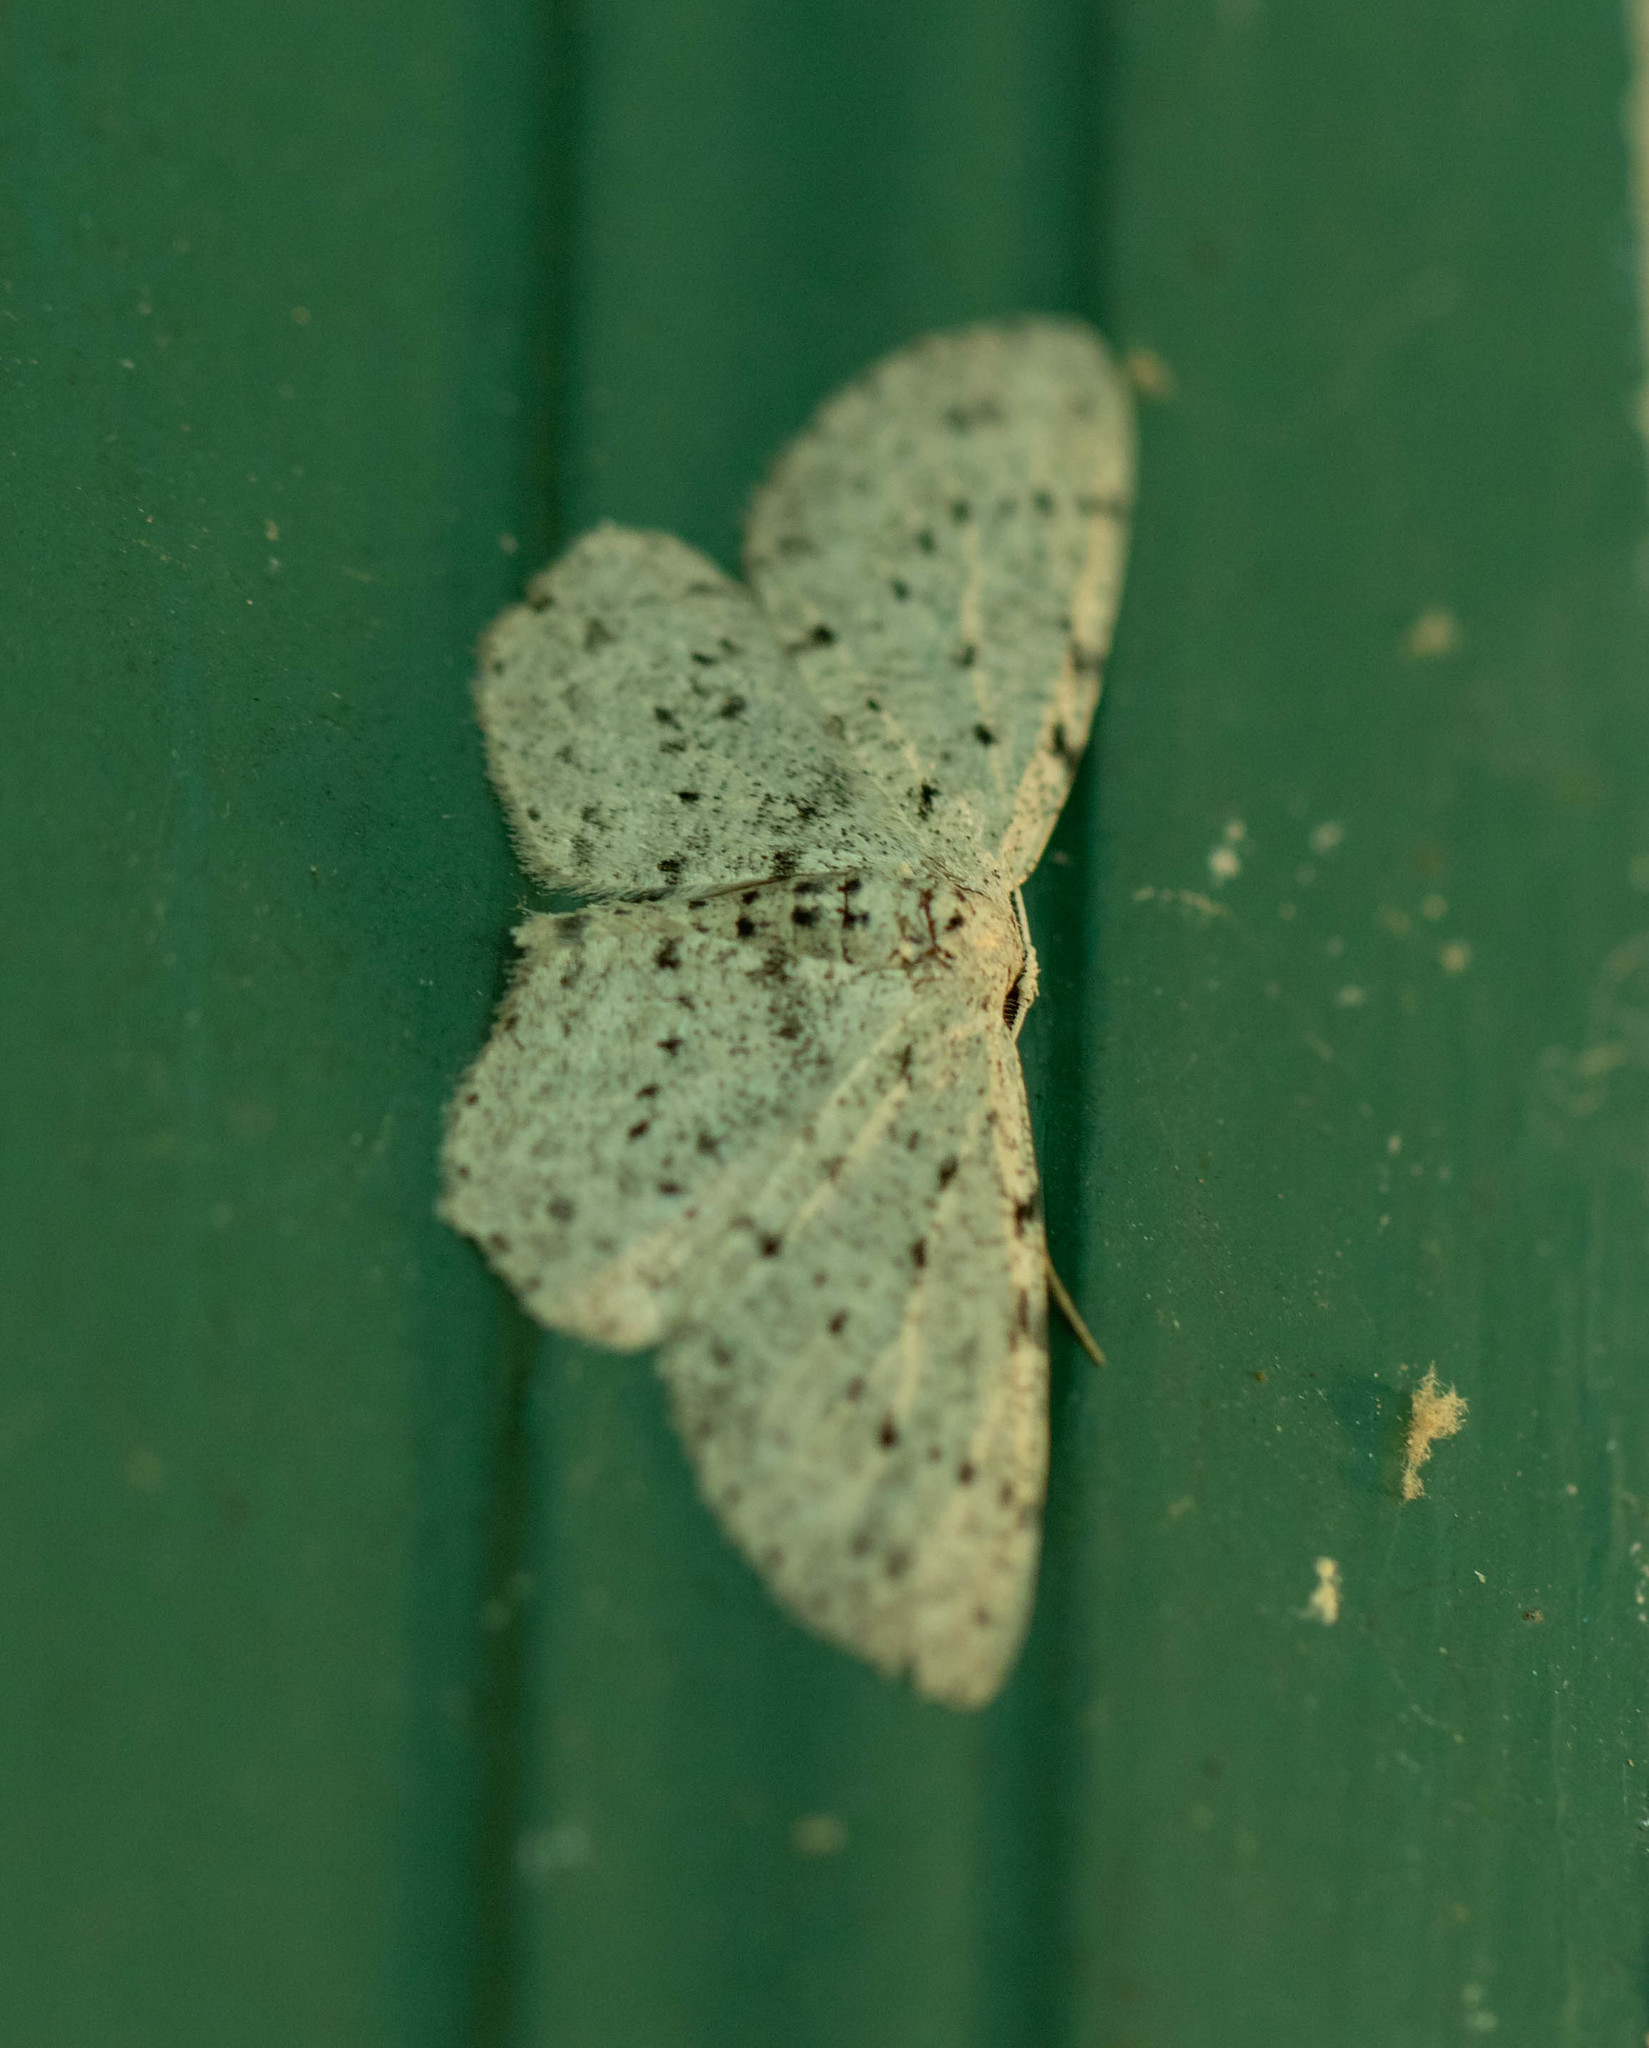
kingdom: Animalia
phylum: Arthropoda
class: Insecta
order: Lepidoptera
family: Geometridae
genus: Glena
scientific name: Glena cribrataria
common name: Dotted gray
